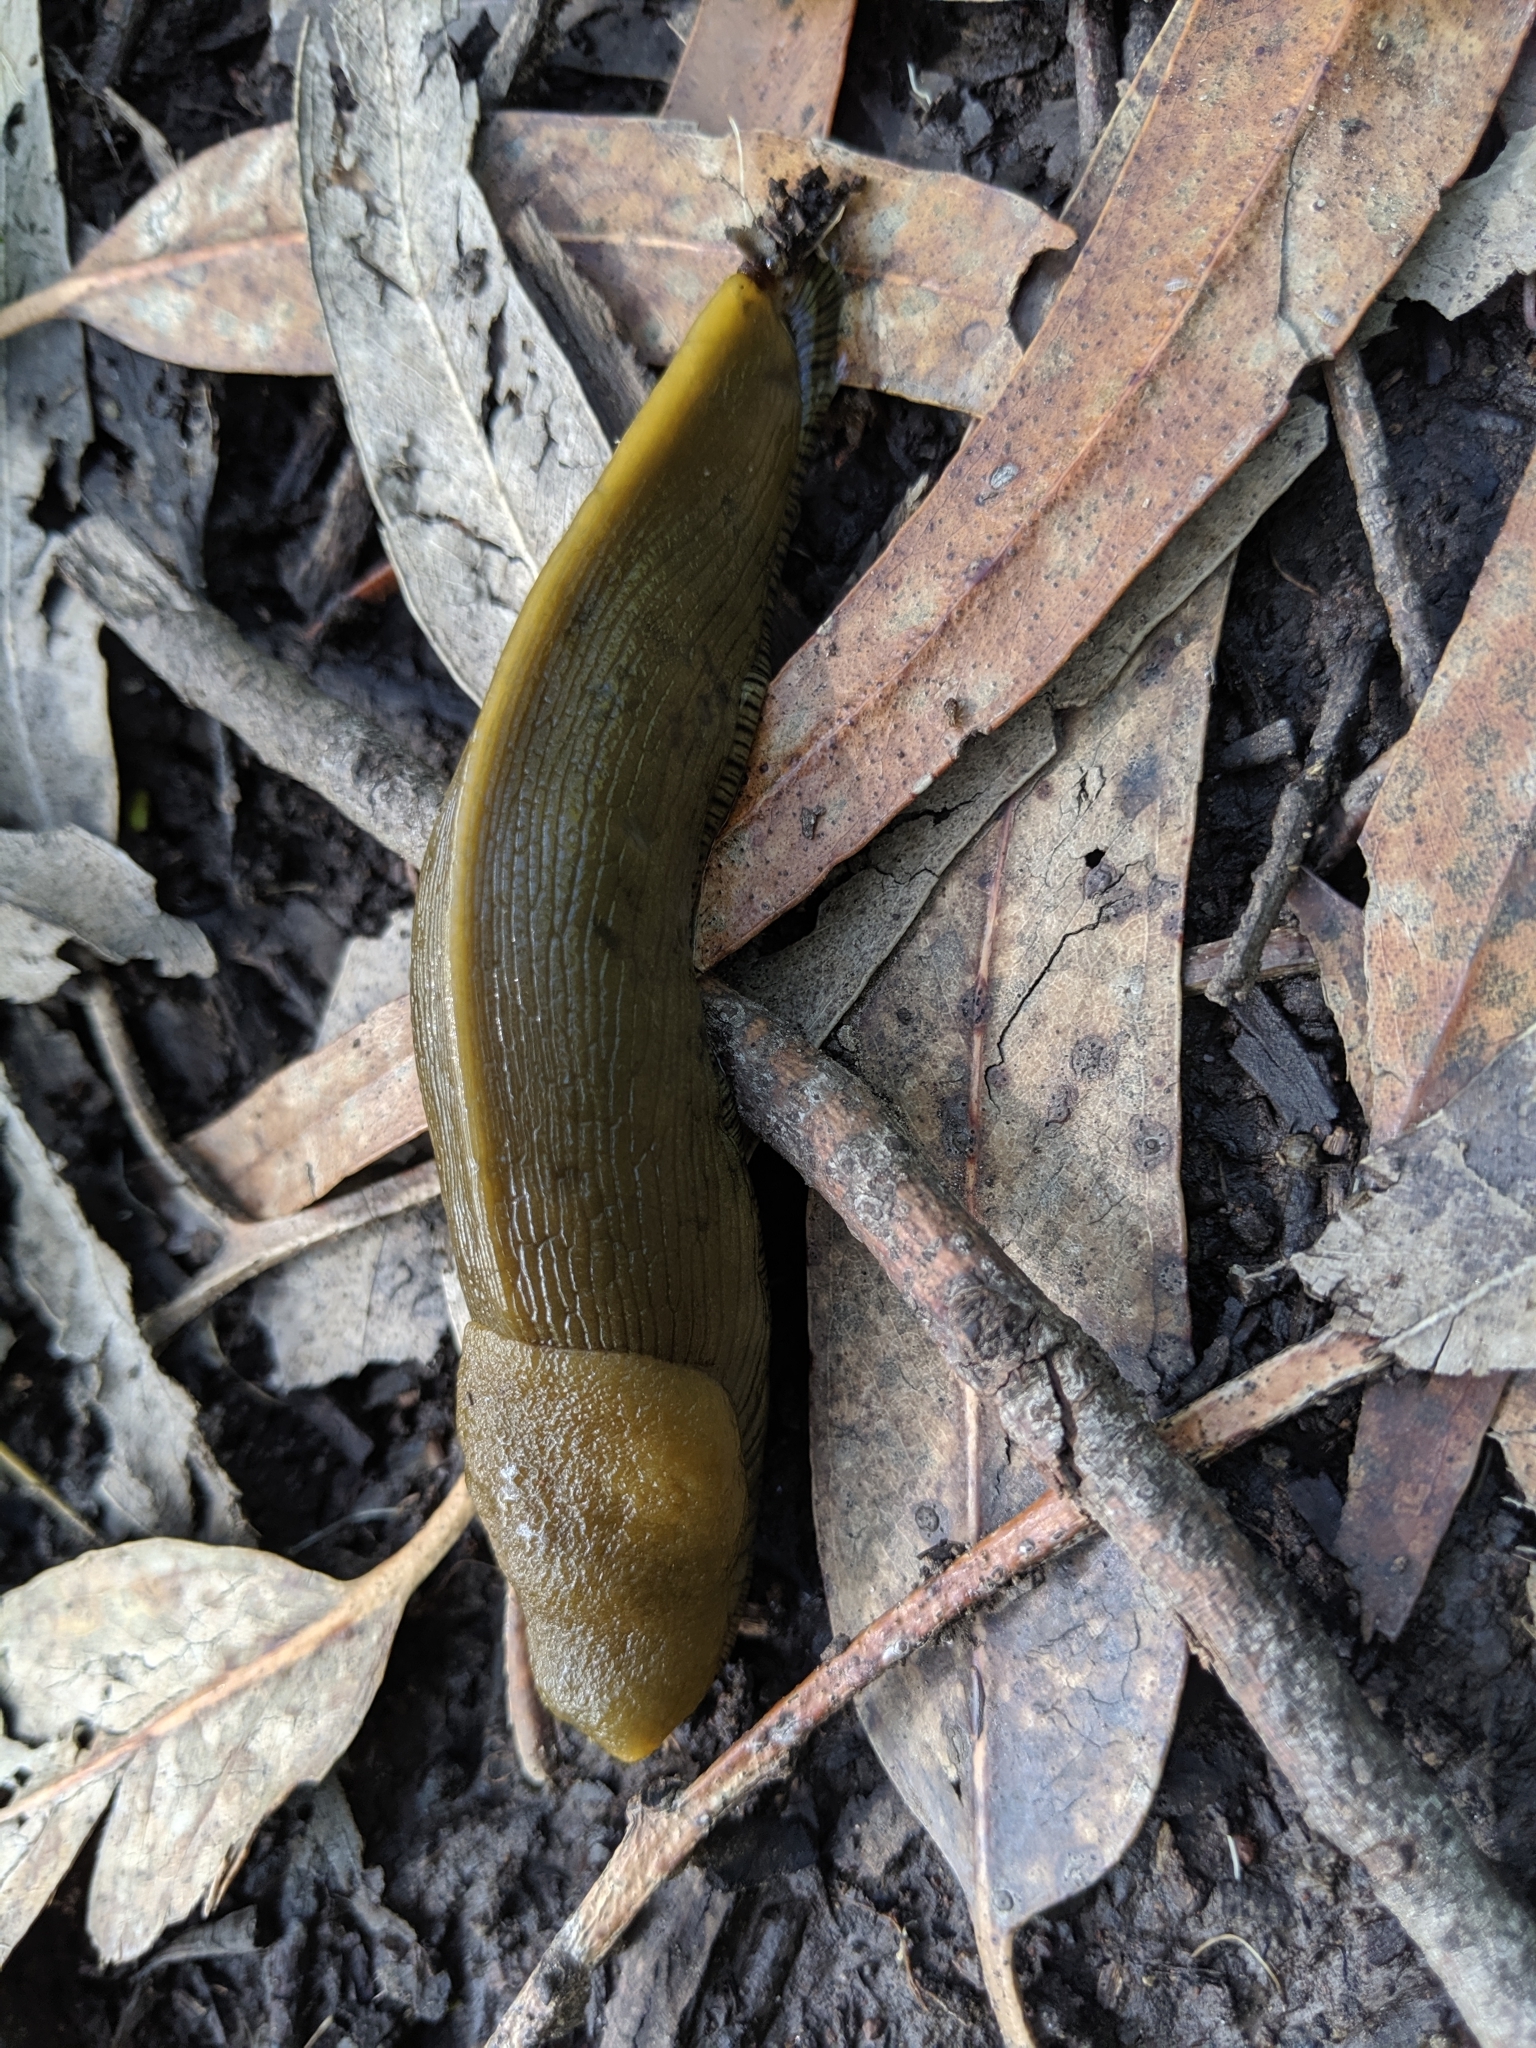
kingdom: Animalia
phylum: Mollusca
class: Gastropoda
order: Stylommatophora
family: Ariolimacidae
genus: Ariolimax
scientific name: Ariolimax
